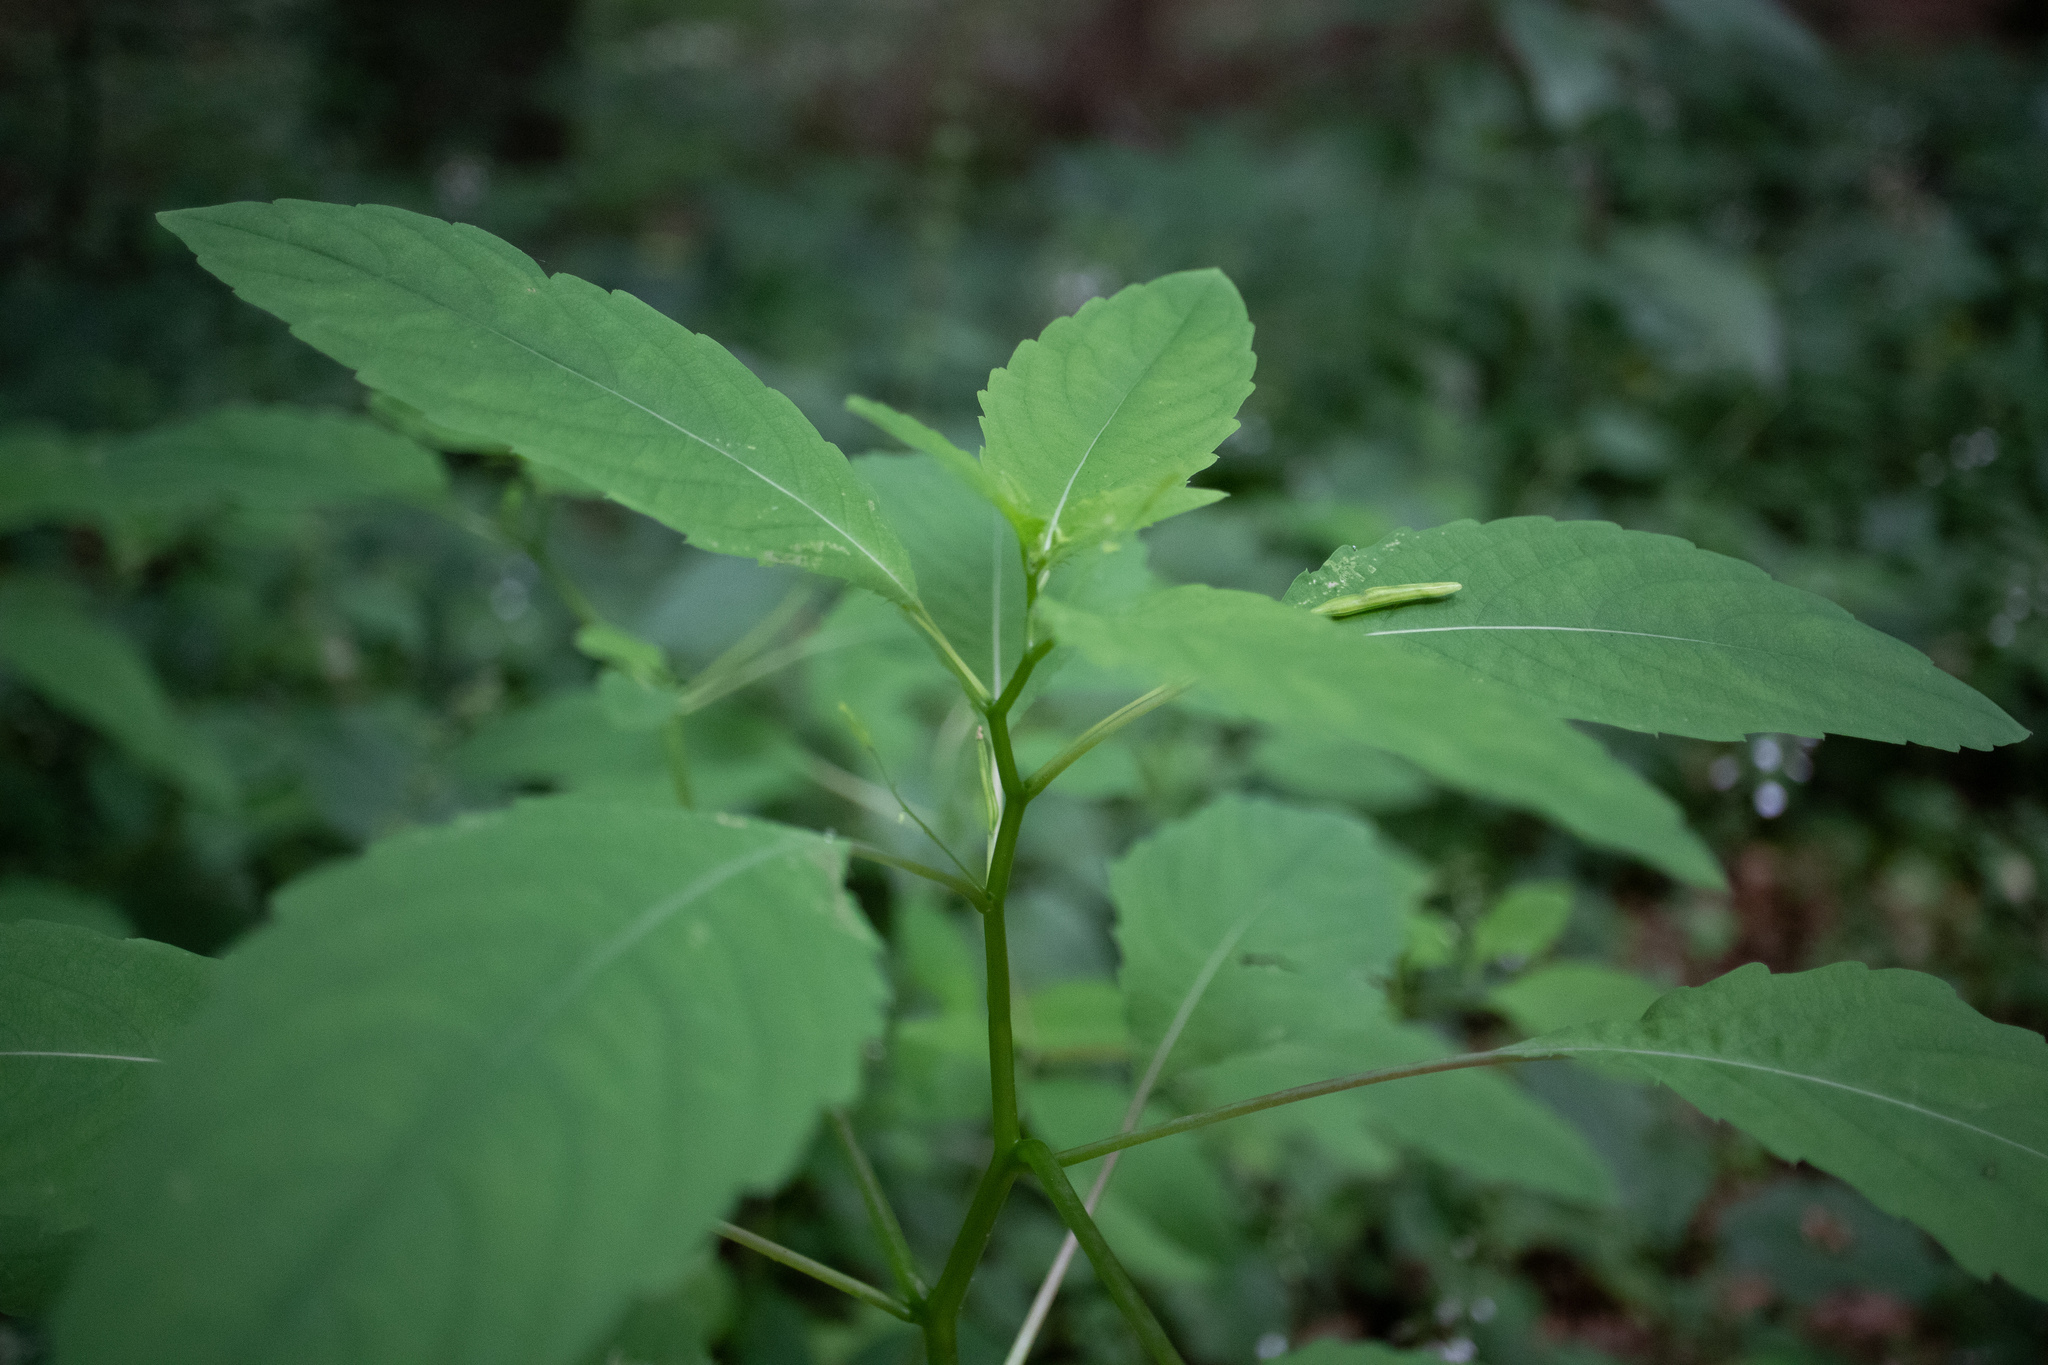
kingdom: Plantae
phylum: Tracheophyta
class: Magnoliopsida
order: Ericales
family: Balsaminaceae
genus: Impatiens
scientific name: Impatiens noli-tangere
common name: Touch-me-not balsam
